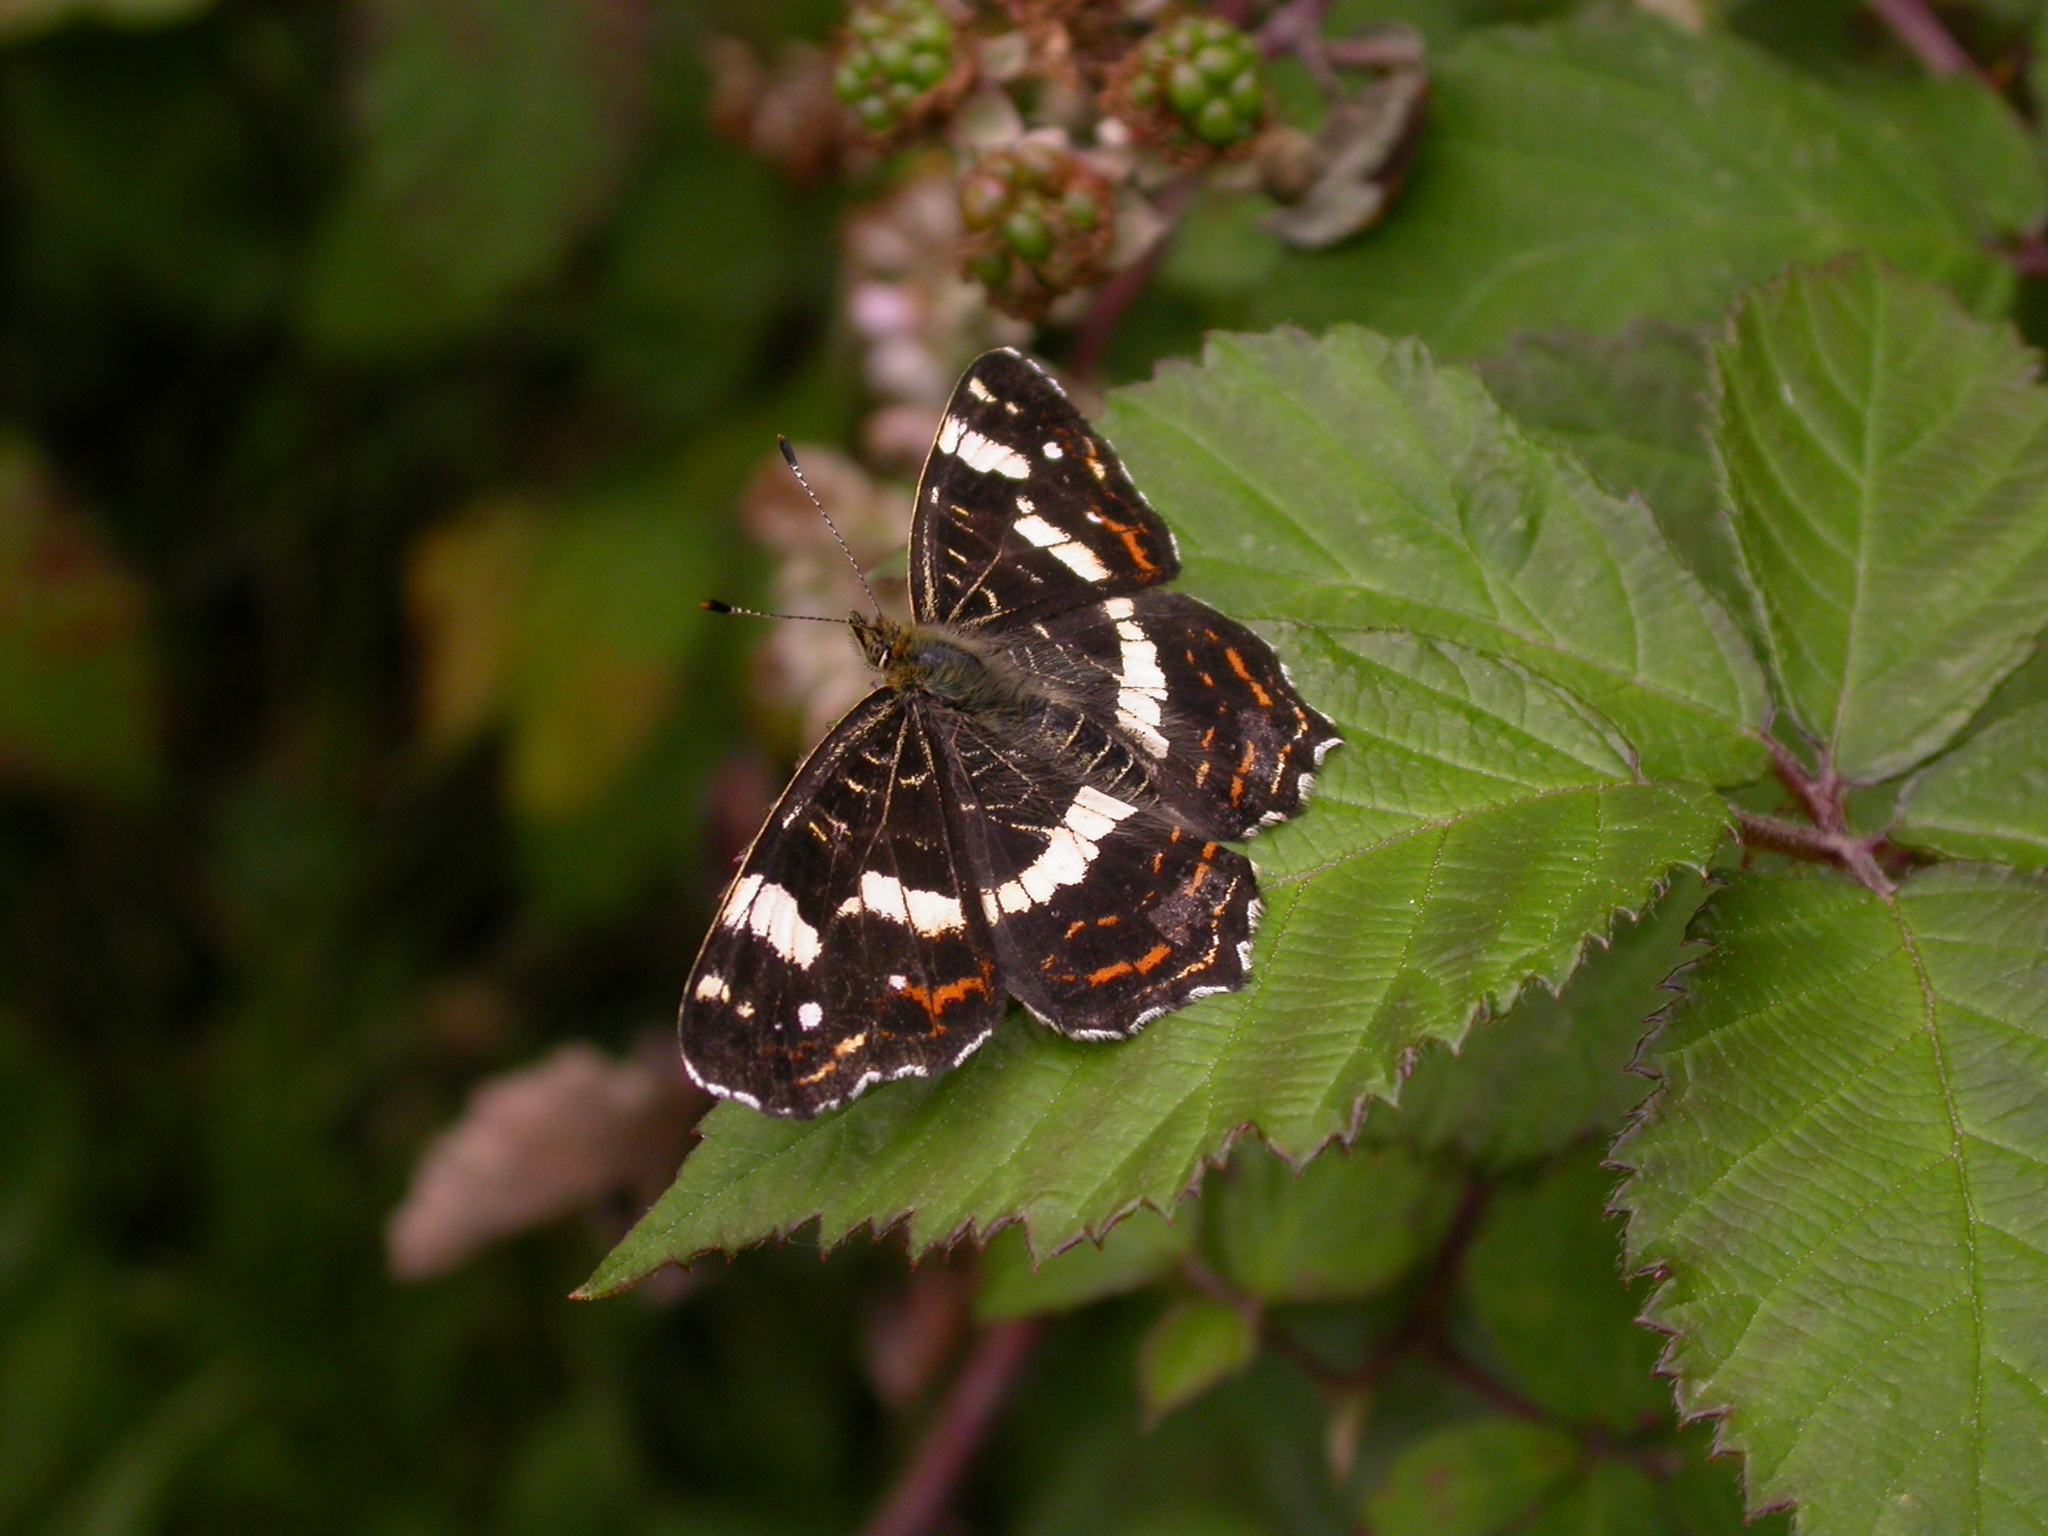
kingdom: Animalia
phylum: Arthropoda
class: Insecta
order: Lepidoptera
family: Nymphalidae
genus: Araschnia
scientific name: Araschnia levana
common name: Map butterfly
